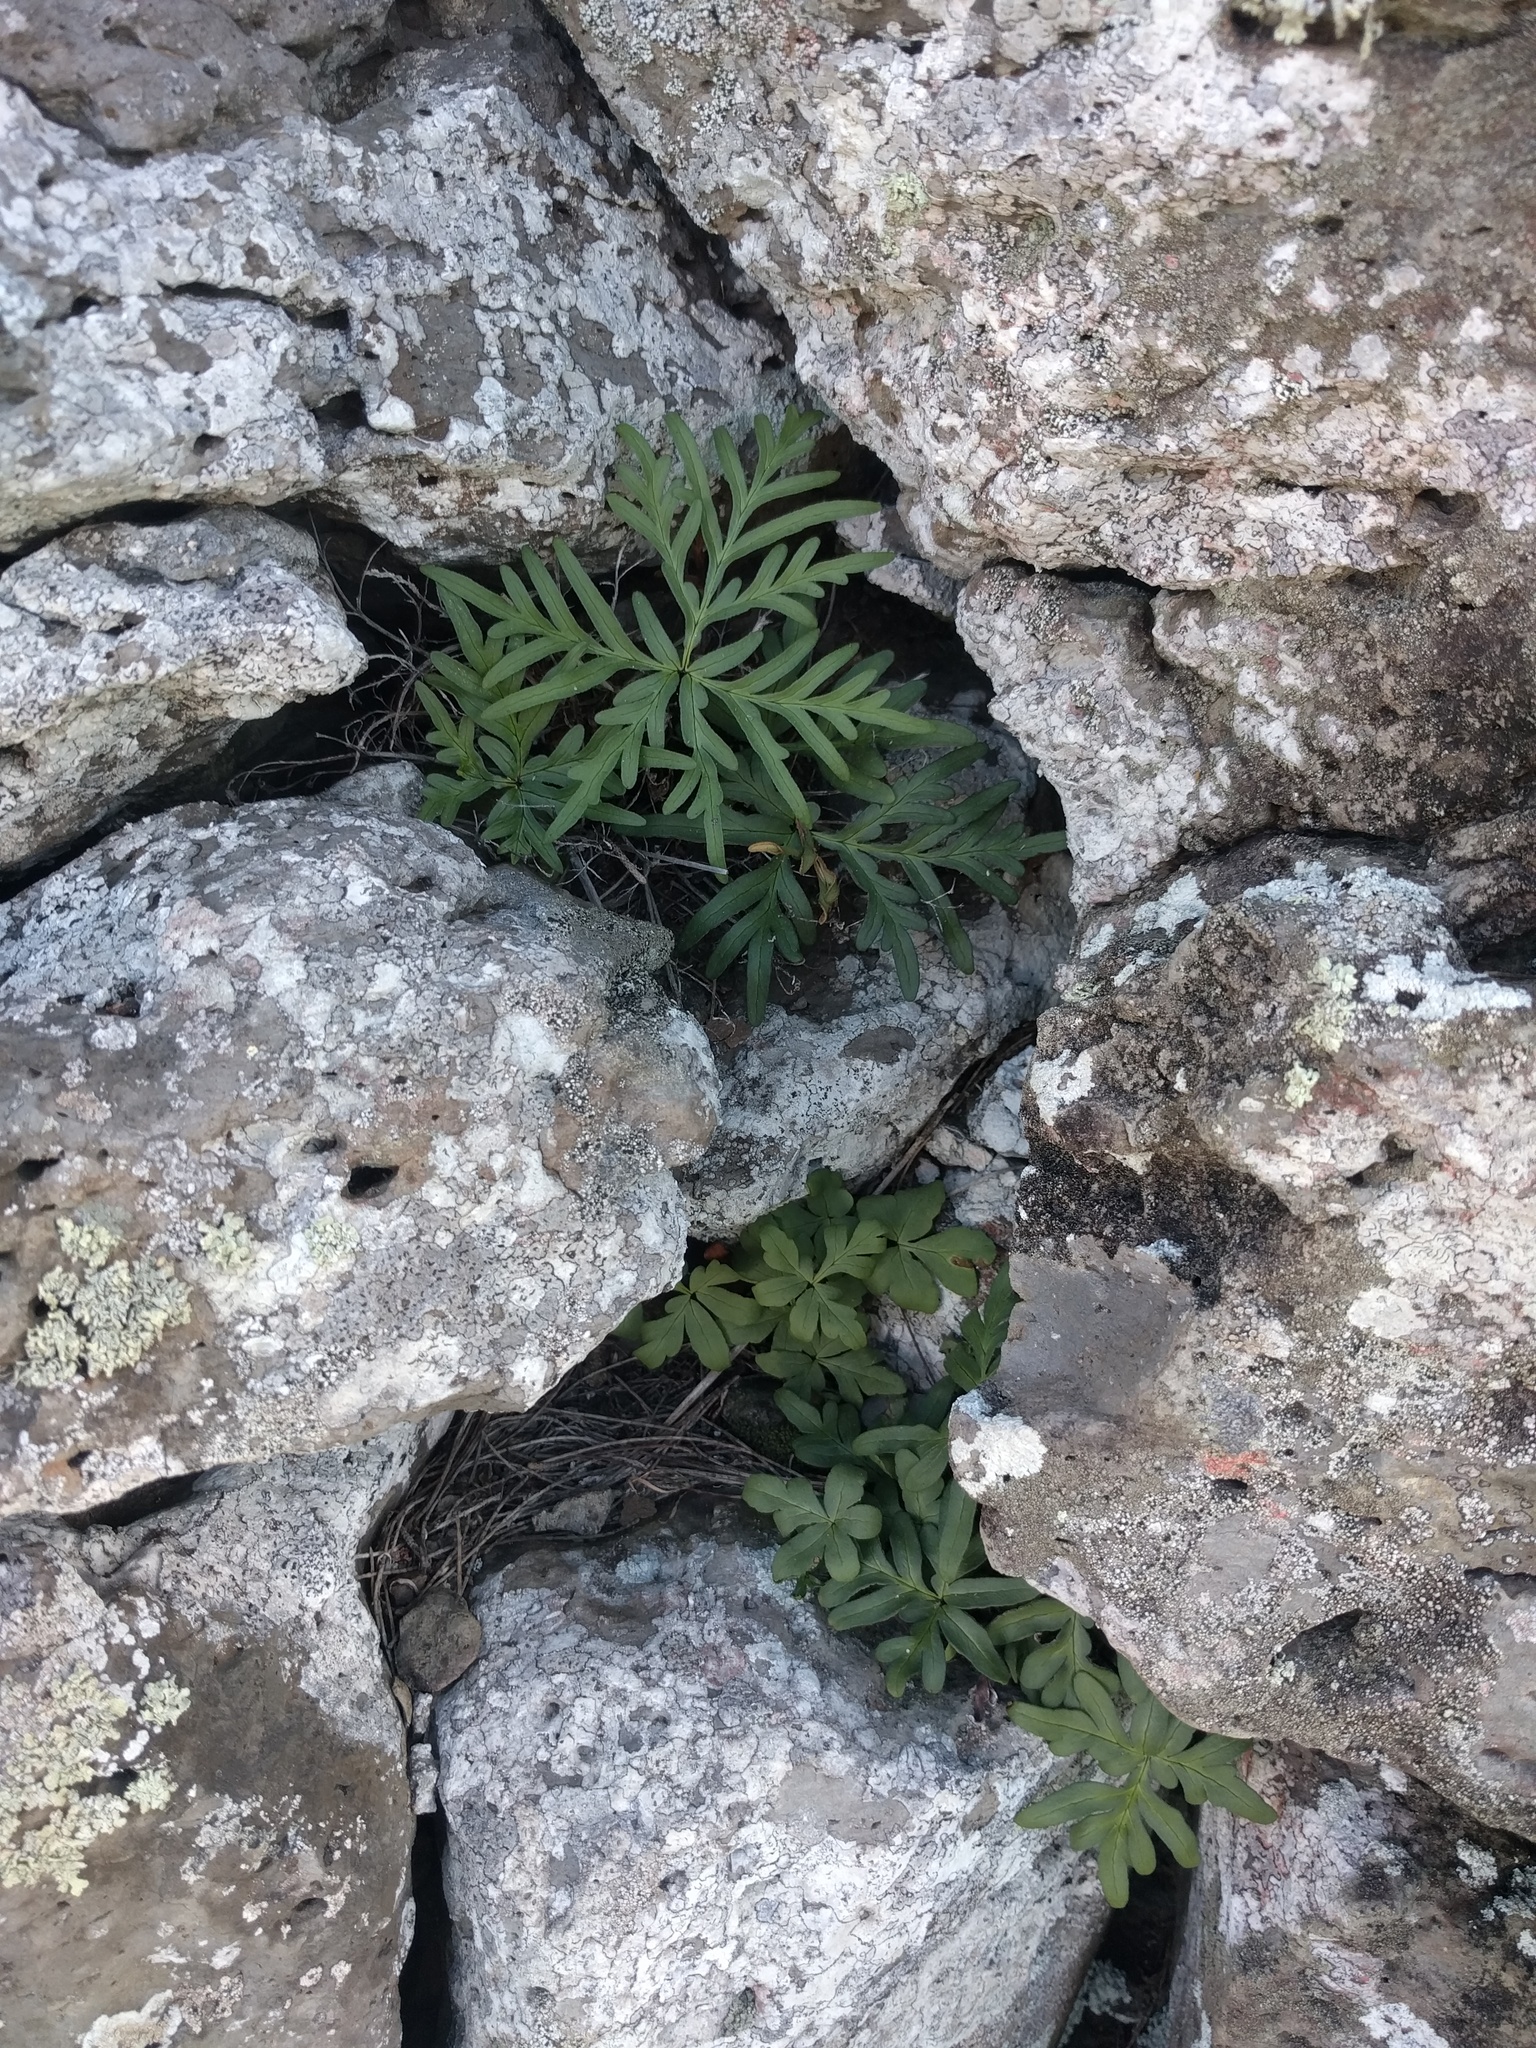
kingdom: Plantae
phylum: Tracheophyta
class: Polypodiopsida
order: Polypodiales
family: Pteridaceae
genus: Doryopteris
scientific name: Doryopteris decipiens
